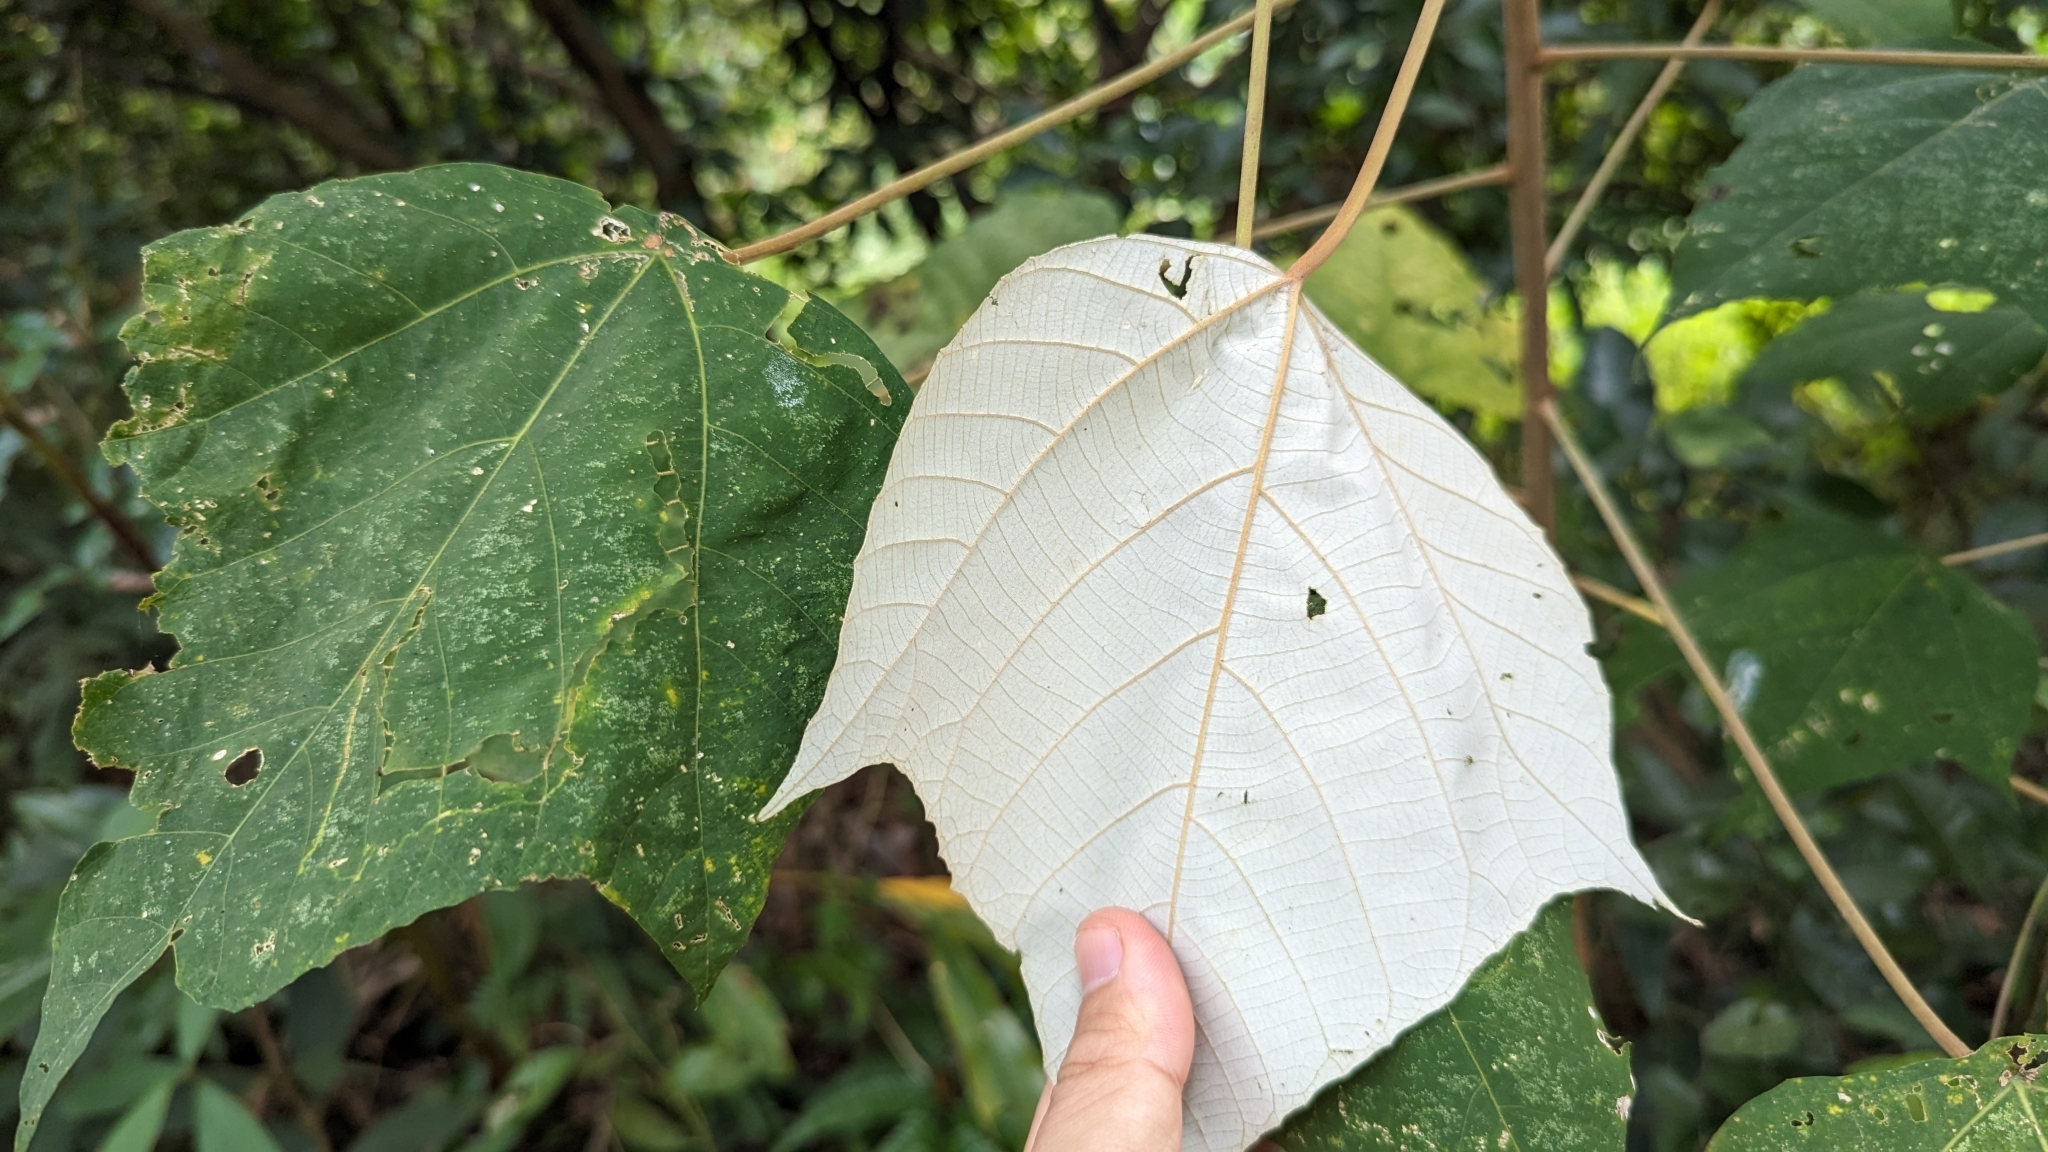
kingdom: Plantae
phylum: Tracheophyta
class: Magnoliopsida
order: Malpighiales
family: Euphorbiaceae
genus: Mallotus
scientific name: Mallotus paniculatus
